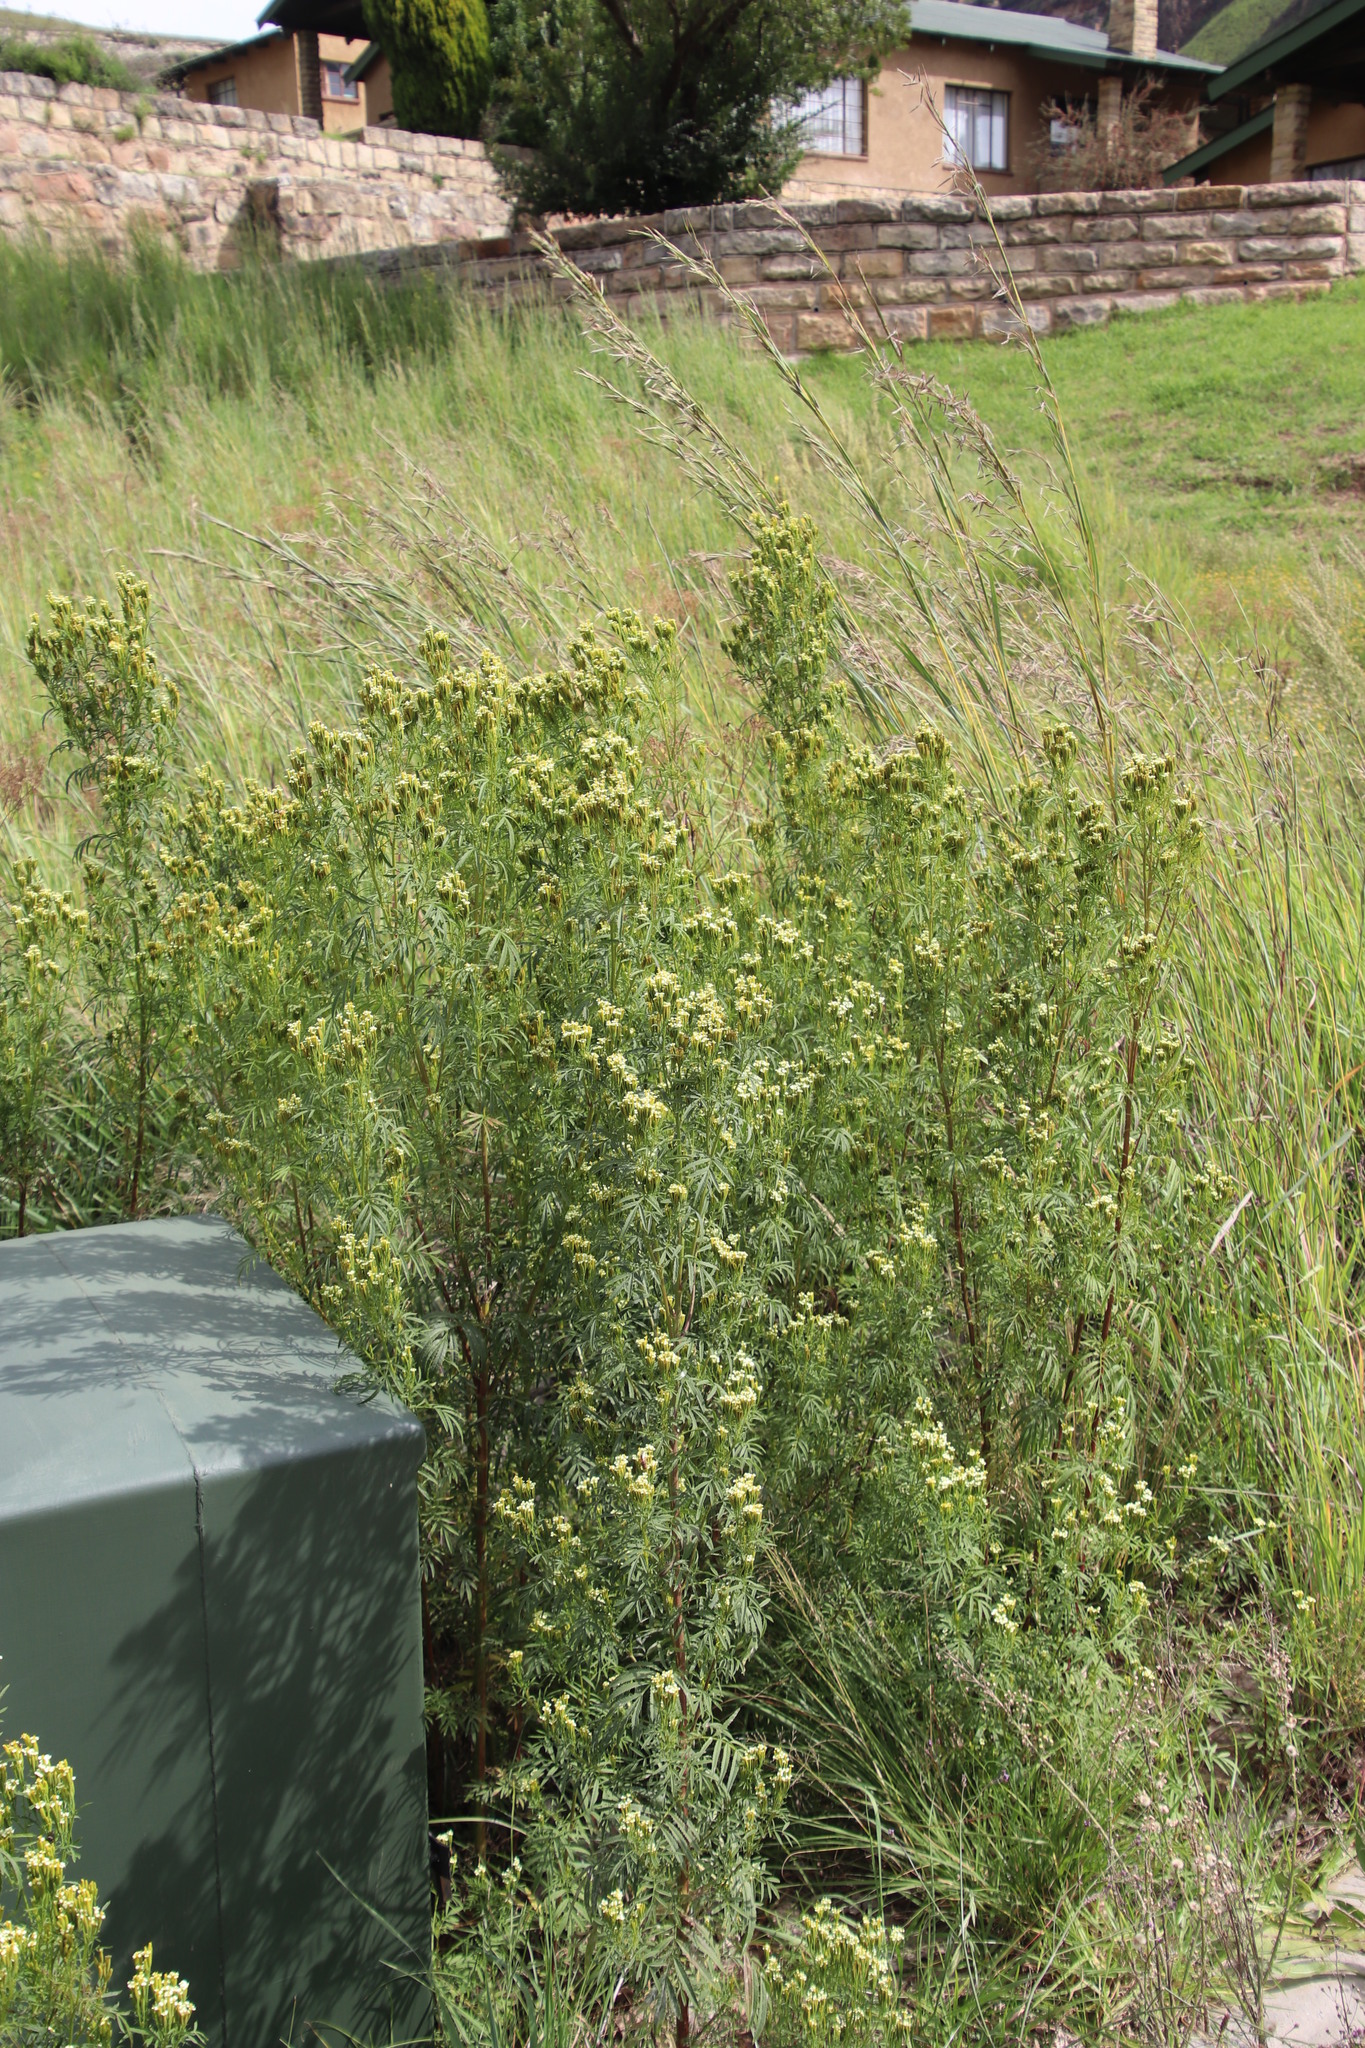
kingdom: Plantae
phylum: Tracheophyta
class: Magnoliopsida
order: Asterales
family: Asteraceae
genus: Tagetes
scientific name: Tagetes minuta
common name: Muster john henry
